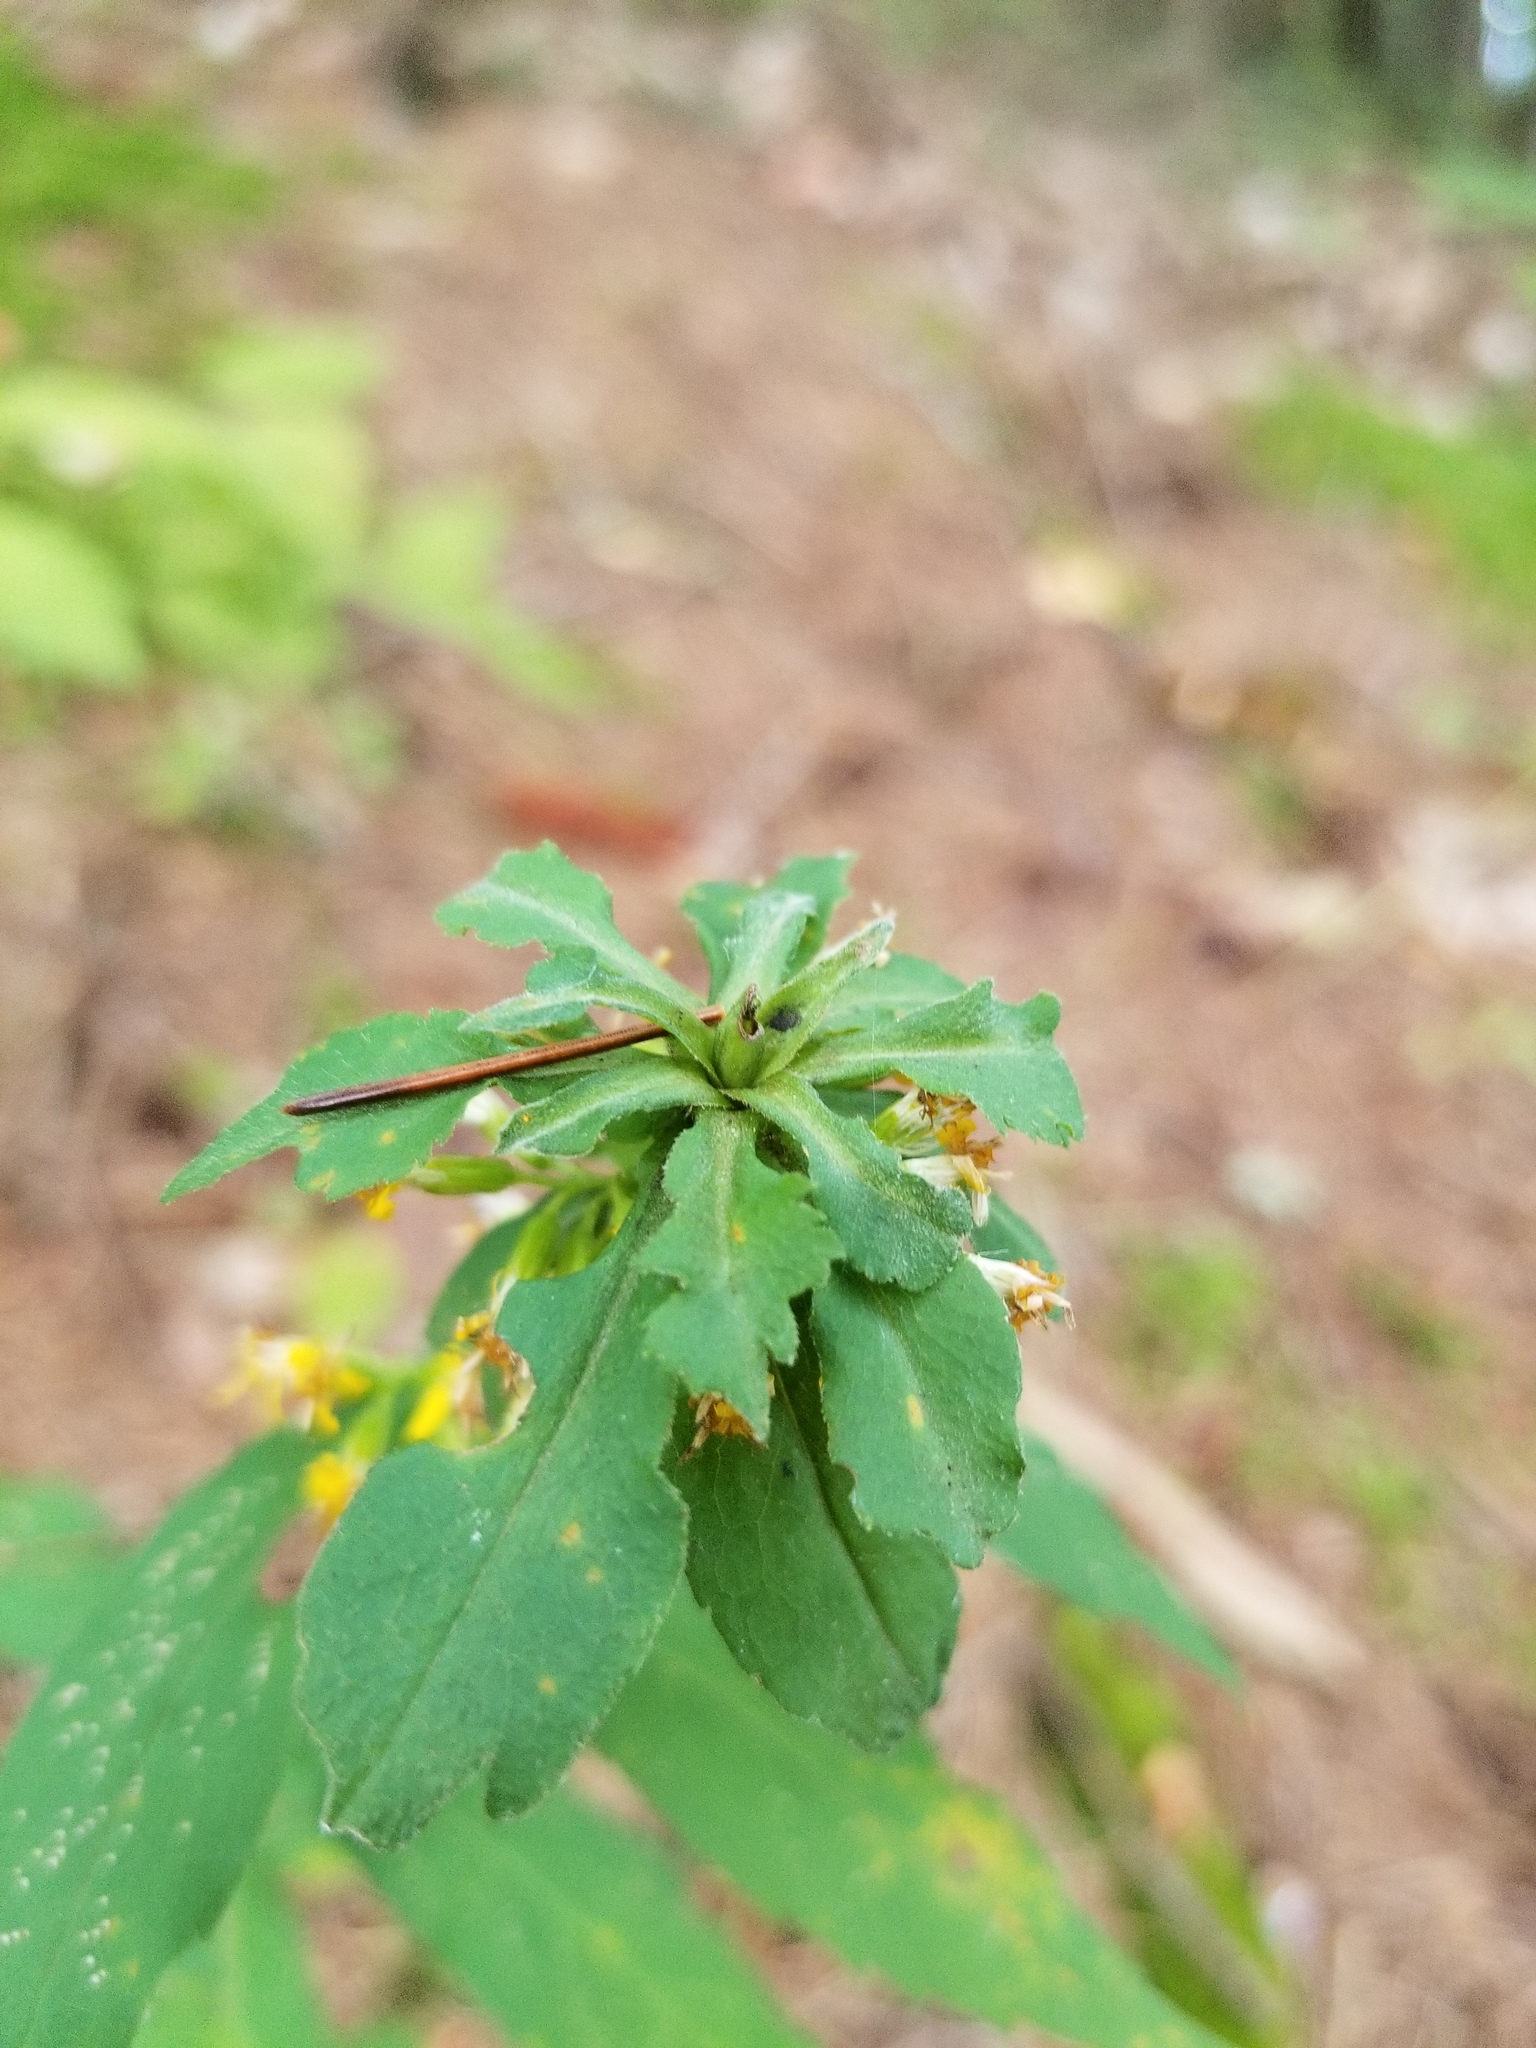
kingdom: Plantae
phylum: Tracheophyta
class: Magnoliopsida
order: Asterales
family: Asteraceae
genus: Solidago
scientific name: Solidago caesia
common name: Woodland goldenrod
